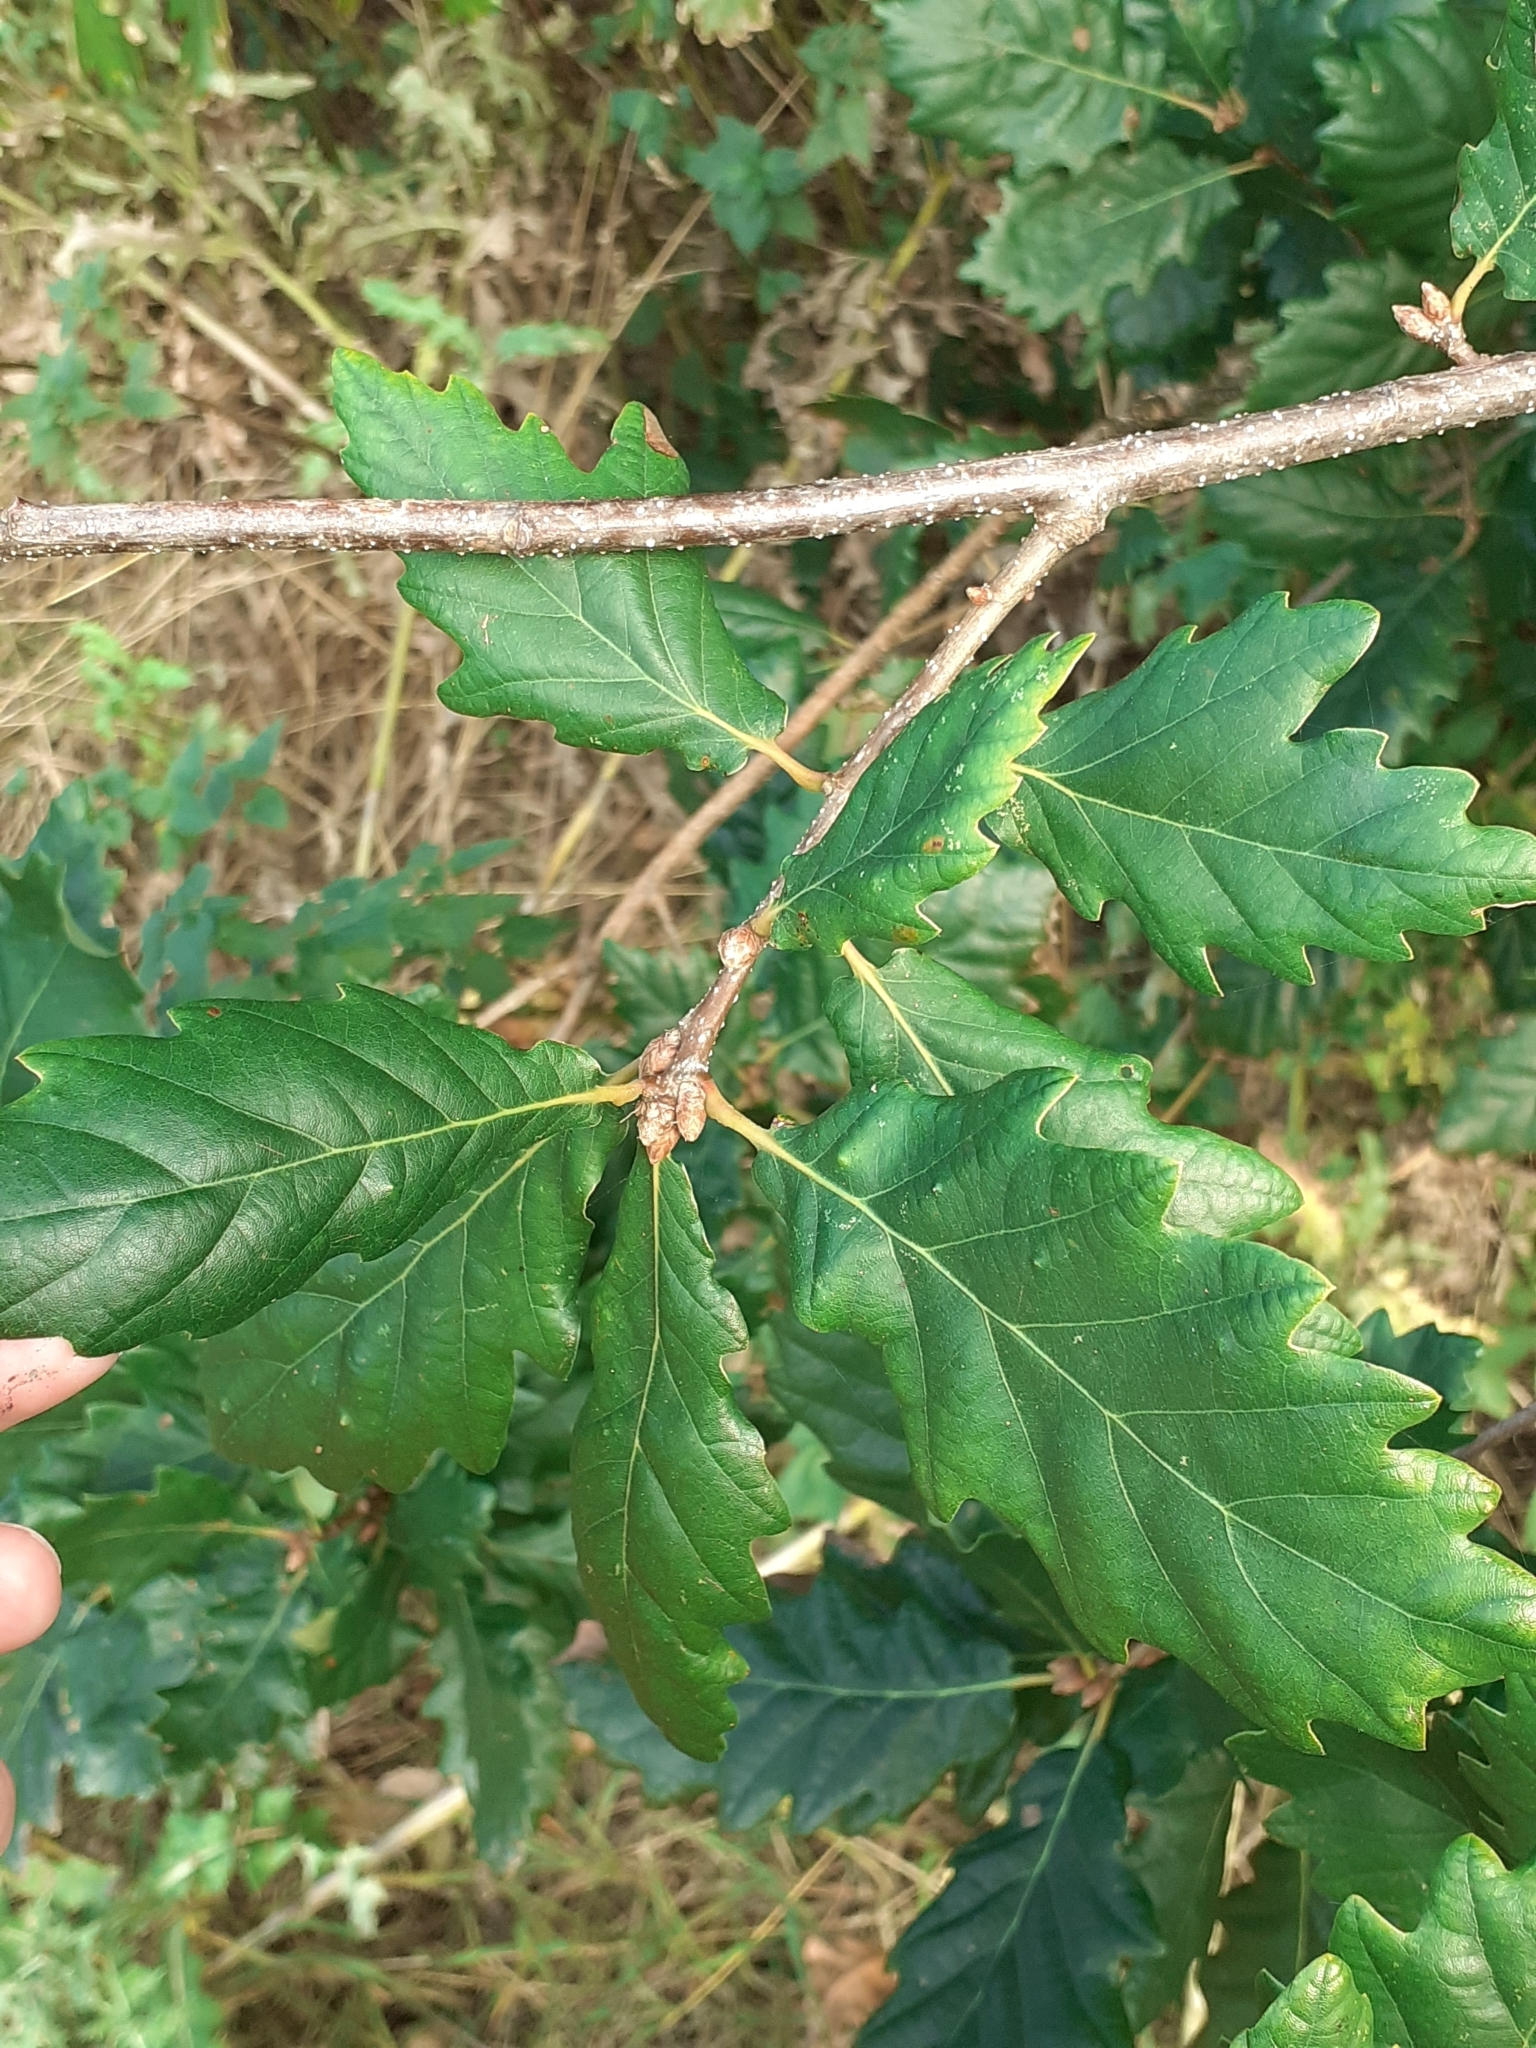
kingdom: Plantae
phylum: Tracheophyta
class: Magnoliopsida
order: Fagales
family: Fagaceae
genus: Quercus
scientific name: Quercus petraea
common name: Sessile oak
